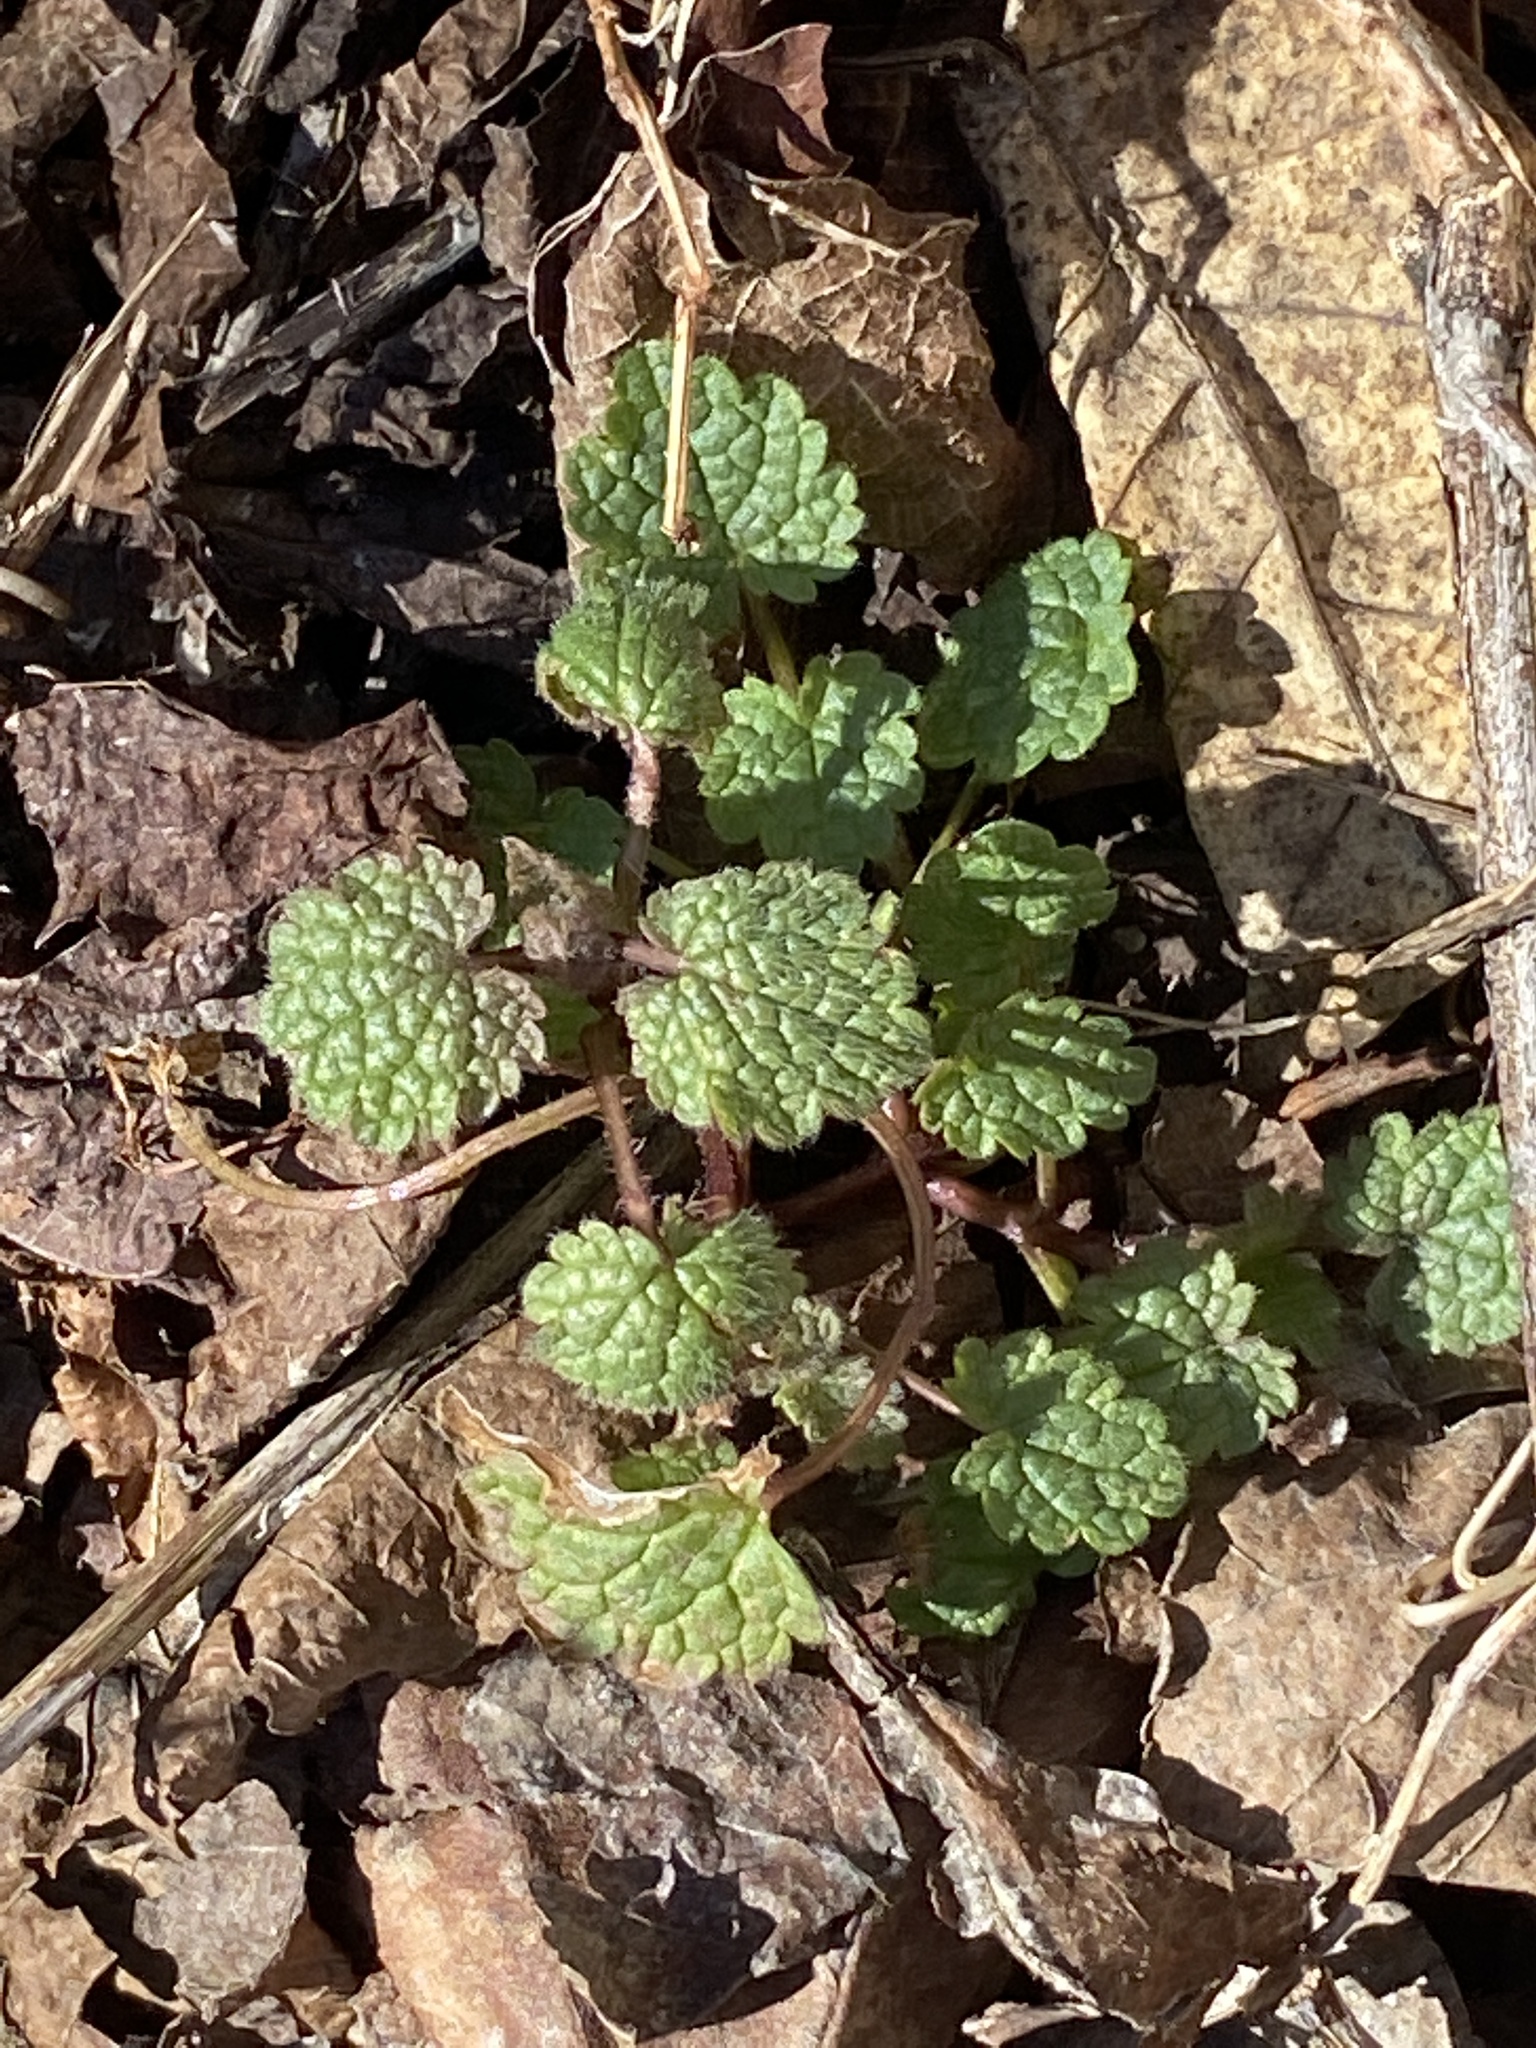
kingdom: Plantae
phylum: Tracheophyta
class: Magnoliopsida
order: Lamiales
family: Lamiaceae
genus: Lamium
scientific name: Lamium purpureum
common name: Red dead-nettle
